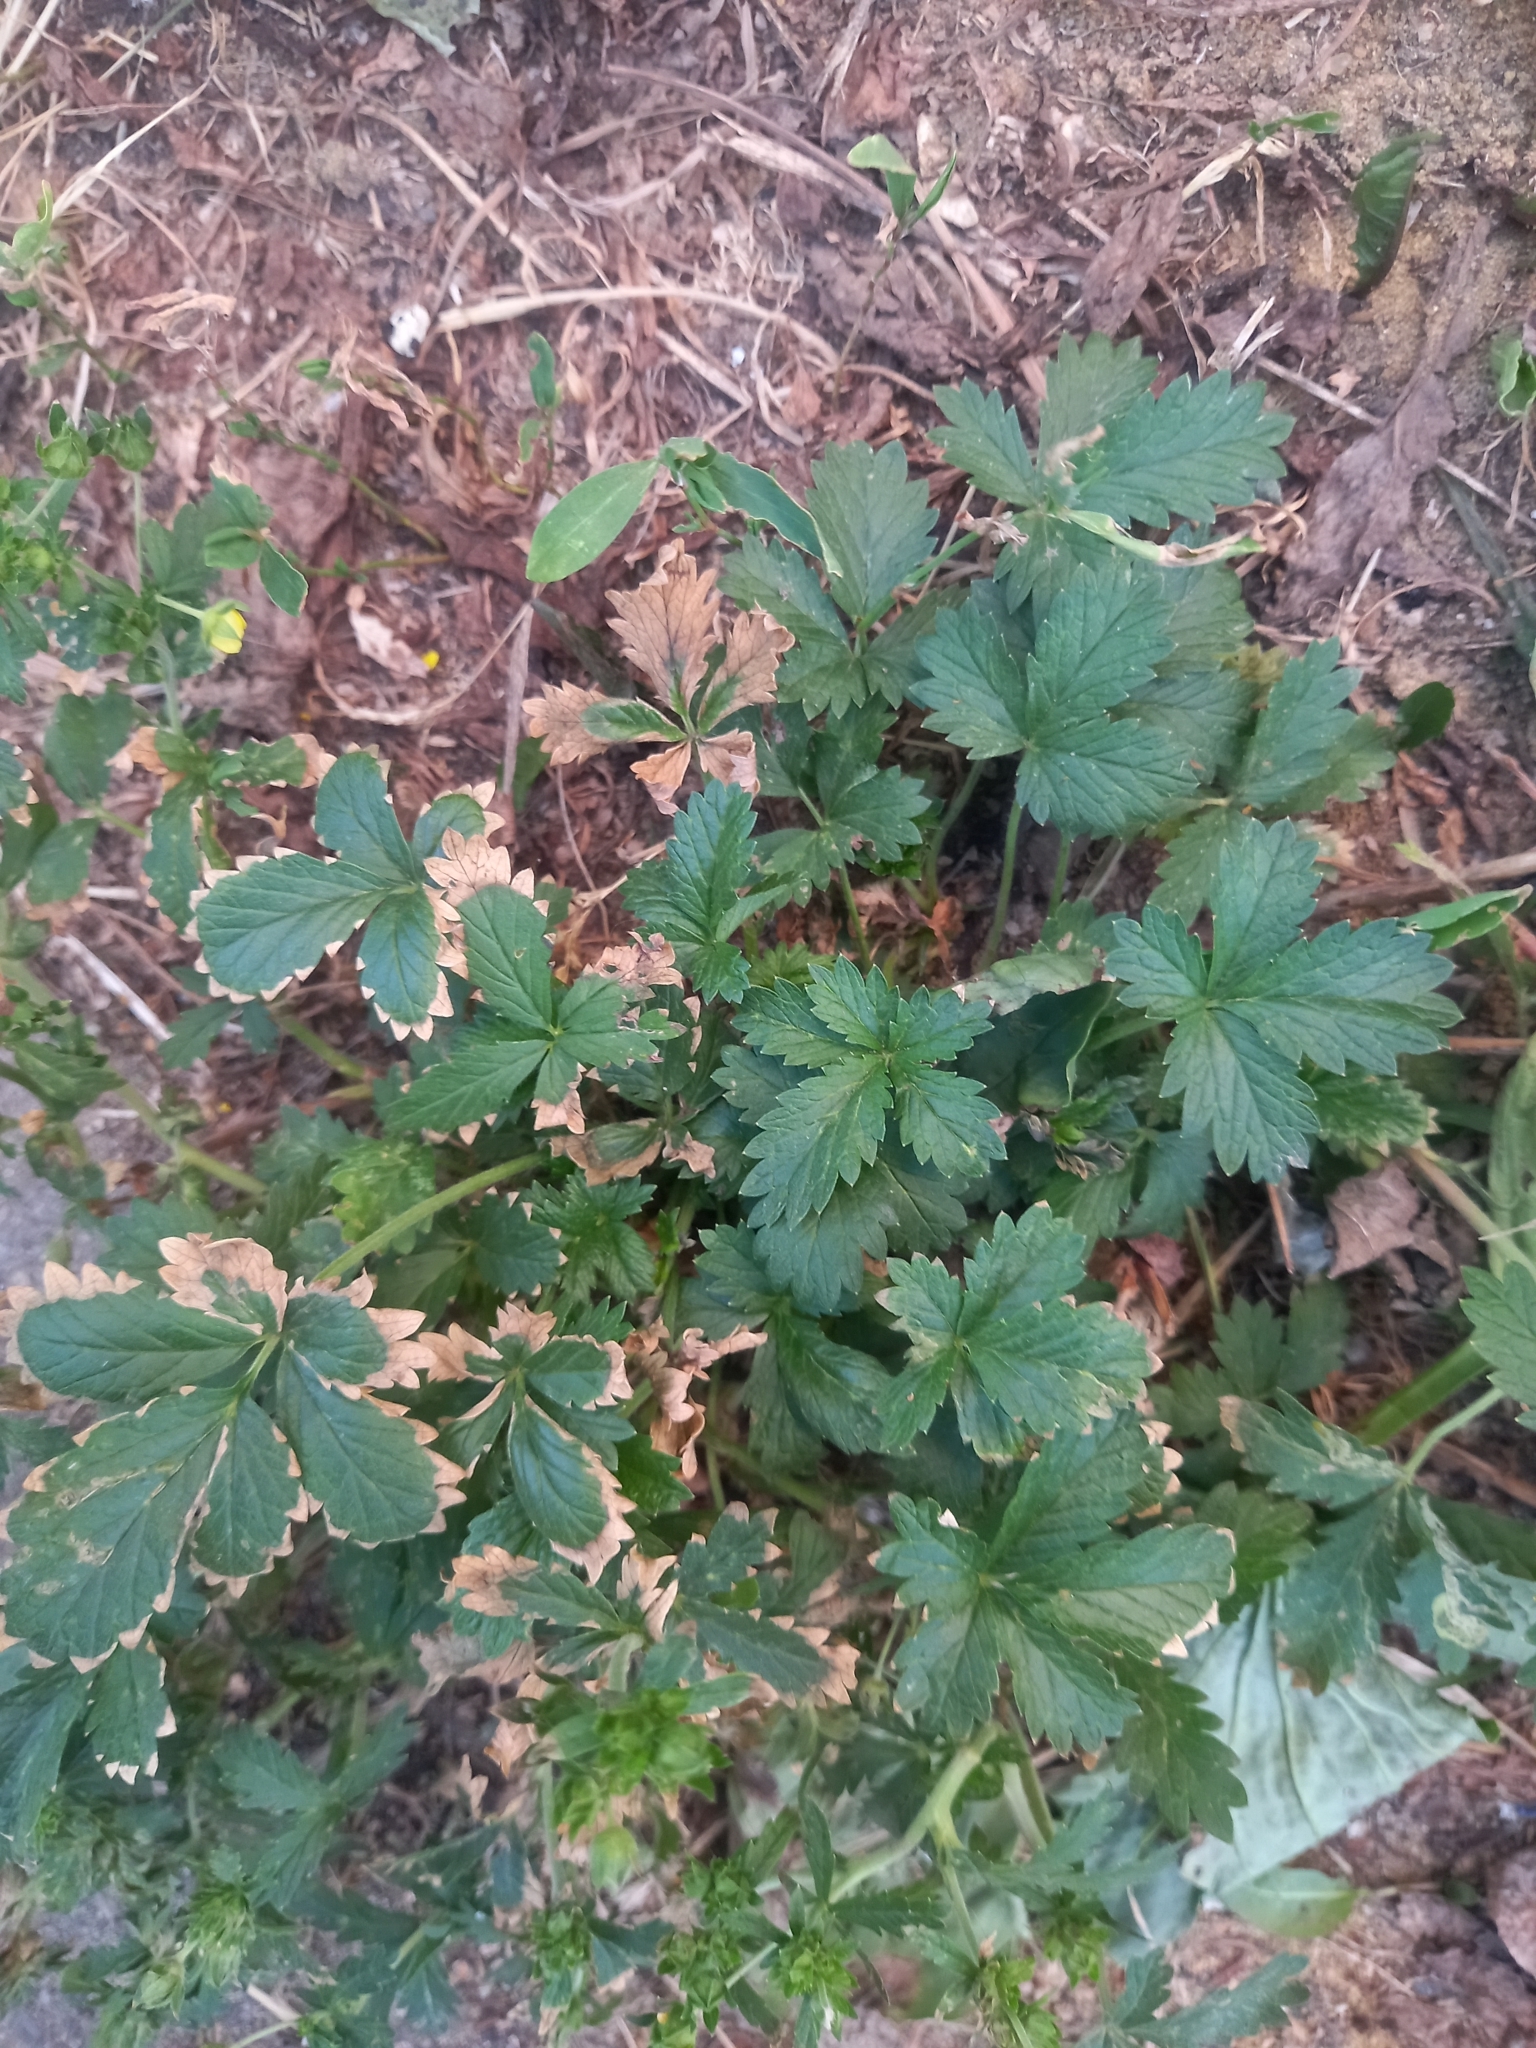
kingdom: Plantae
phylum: Tracheophyta
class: Magnoliopsida
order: Rosales
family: Rosaceae
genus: Potentilla
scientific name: Potentilla norvegica
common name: Ternate-leaved cinquefoil
